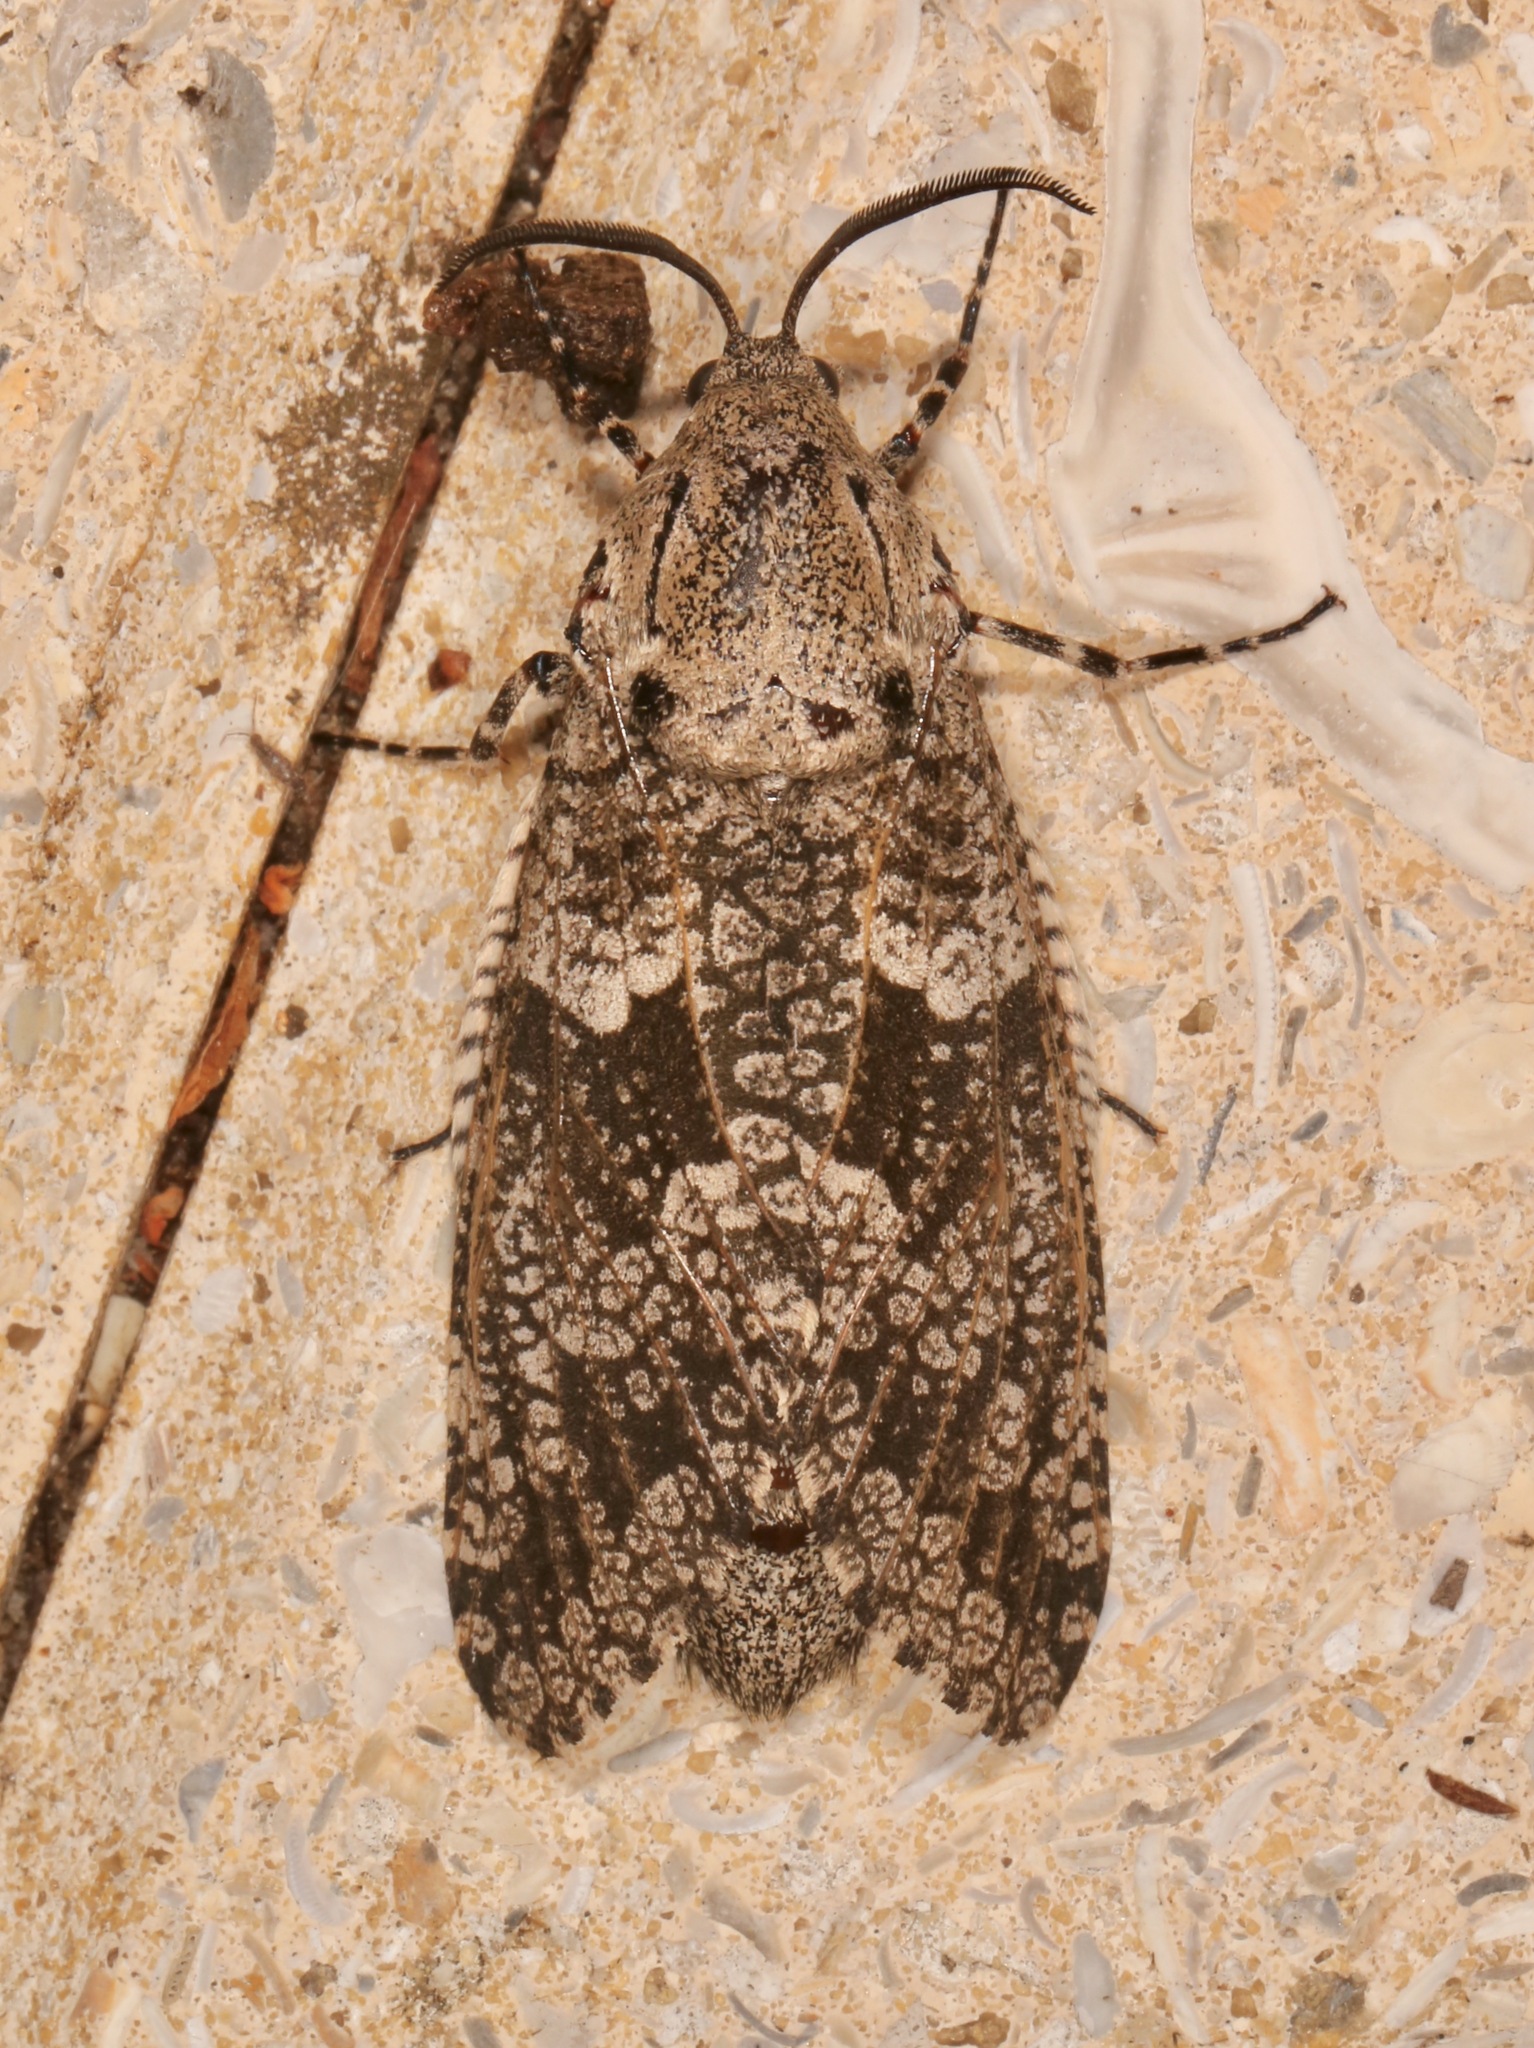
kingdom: Animalia
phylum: Arthropoda
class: Insecta
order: Lepidoptera
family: Cossidae
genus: Prionoxystus
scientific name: Prionoxystus robiniae
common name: Carpenterworm
